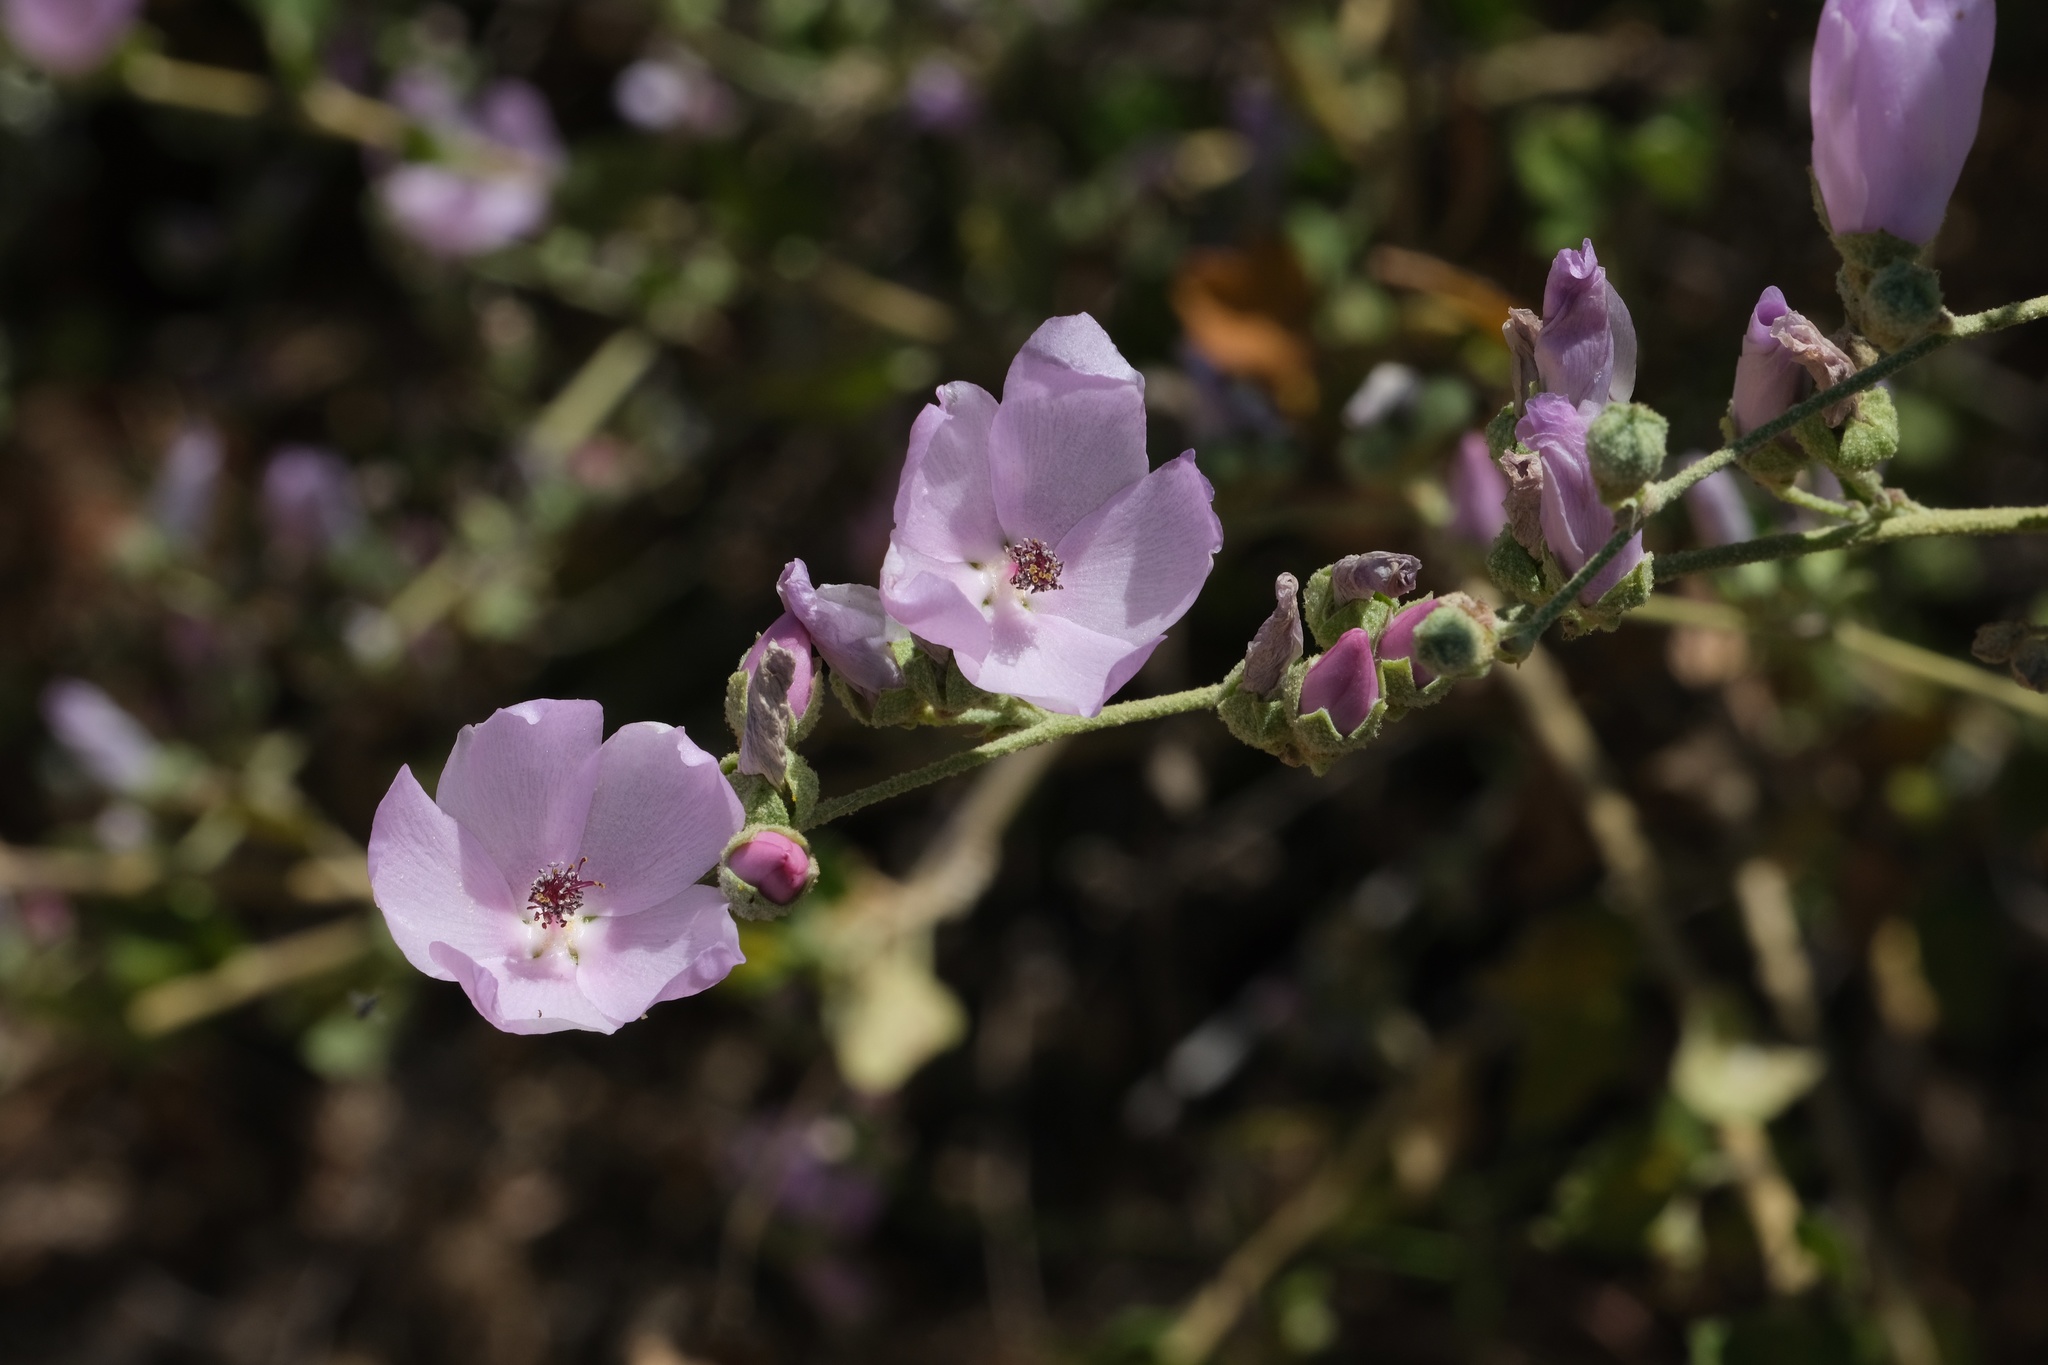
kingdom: Plantae
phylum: Tracheophyta
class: Magnoliopsida
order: Malvales
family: Malvaceae
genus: Malacothamnus
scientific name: Malacothamnus fasciculatus
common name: Sant cruz island bush-mallow
